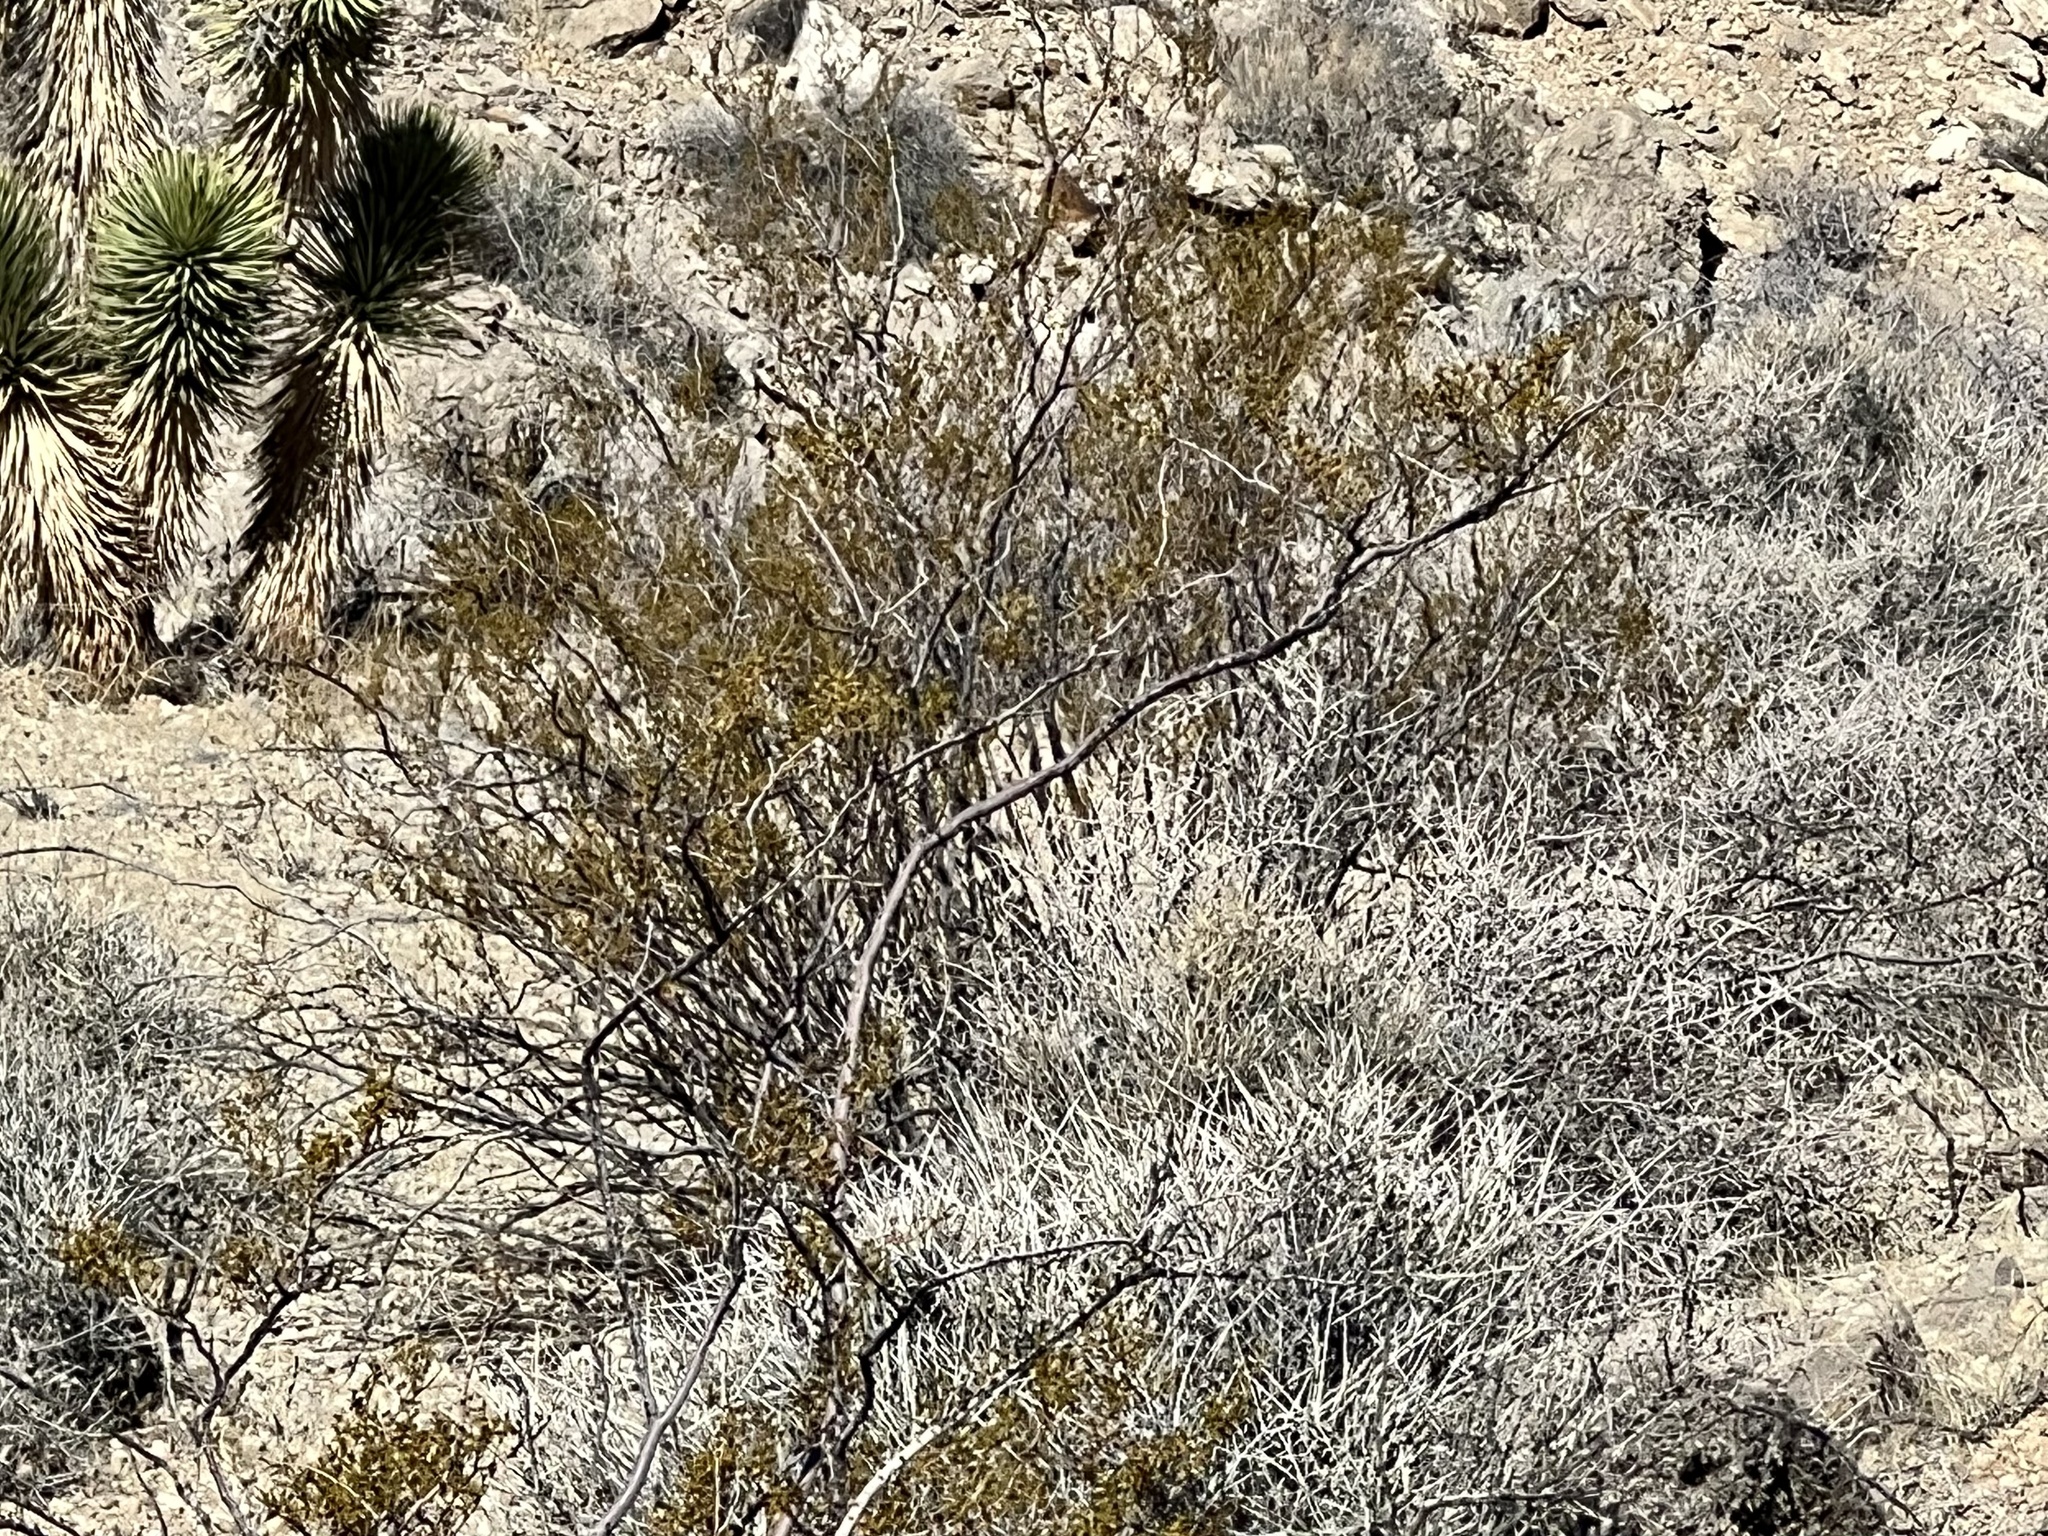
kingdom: Plantae
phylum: Tracheophyta
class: Magnoliopsida
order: Zygophyllales
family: Zygophyllaceae
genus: Larrea
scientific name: Larrea tridentata
